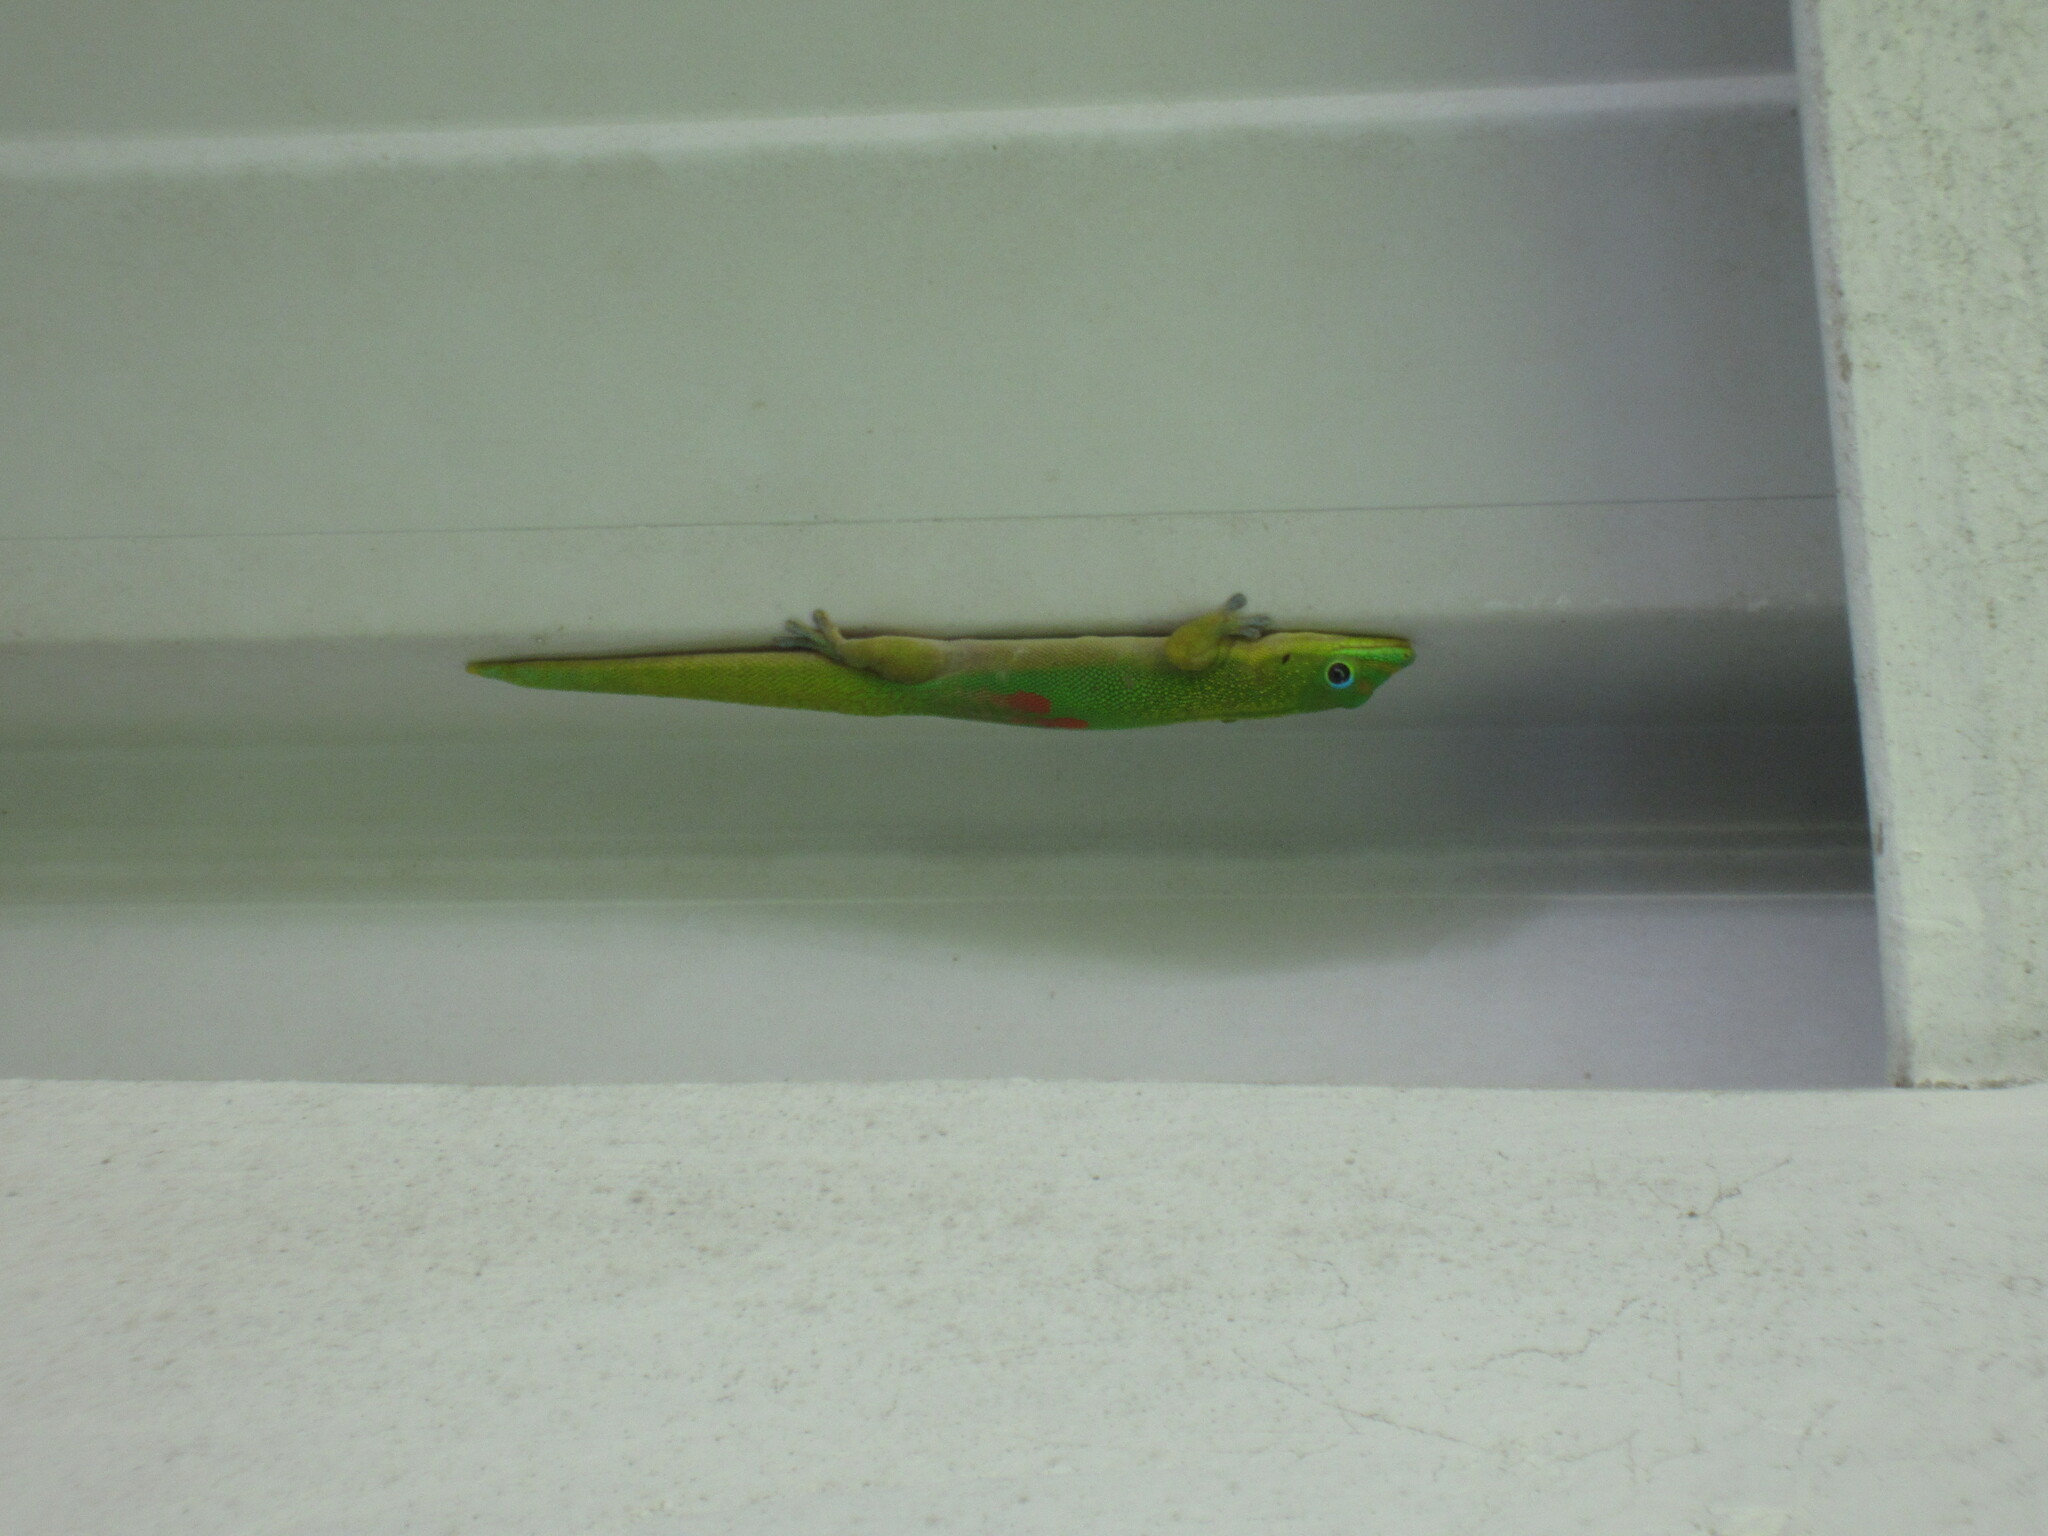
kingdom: Animalia
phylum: Chordata
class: Squamata
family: Gekkonidae
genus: Phelsuma
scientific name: Phelsuma laticauda
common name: Gold dust day gecko
